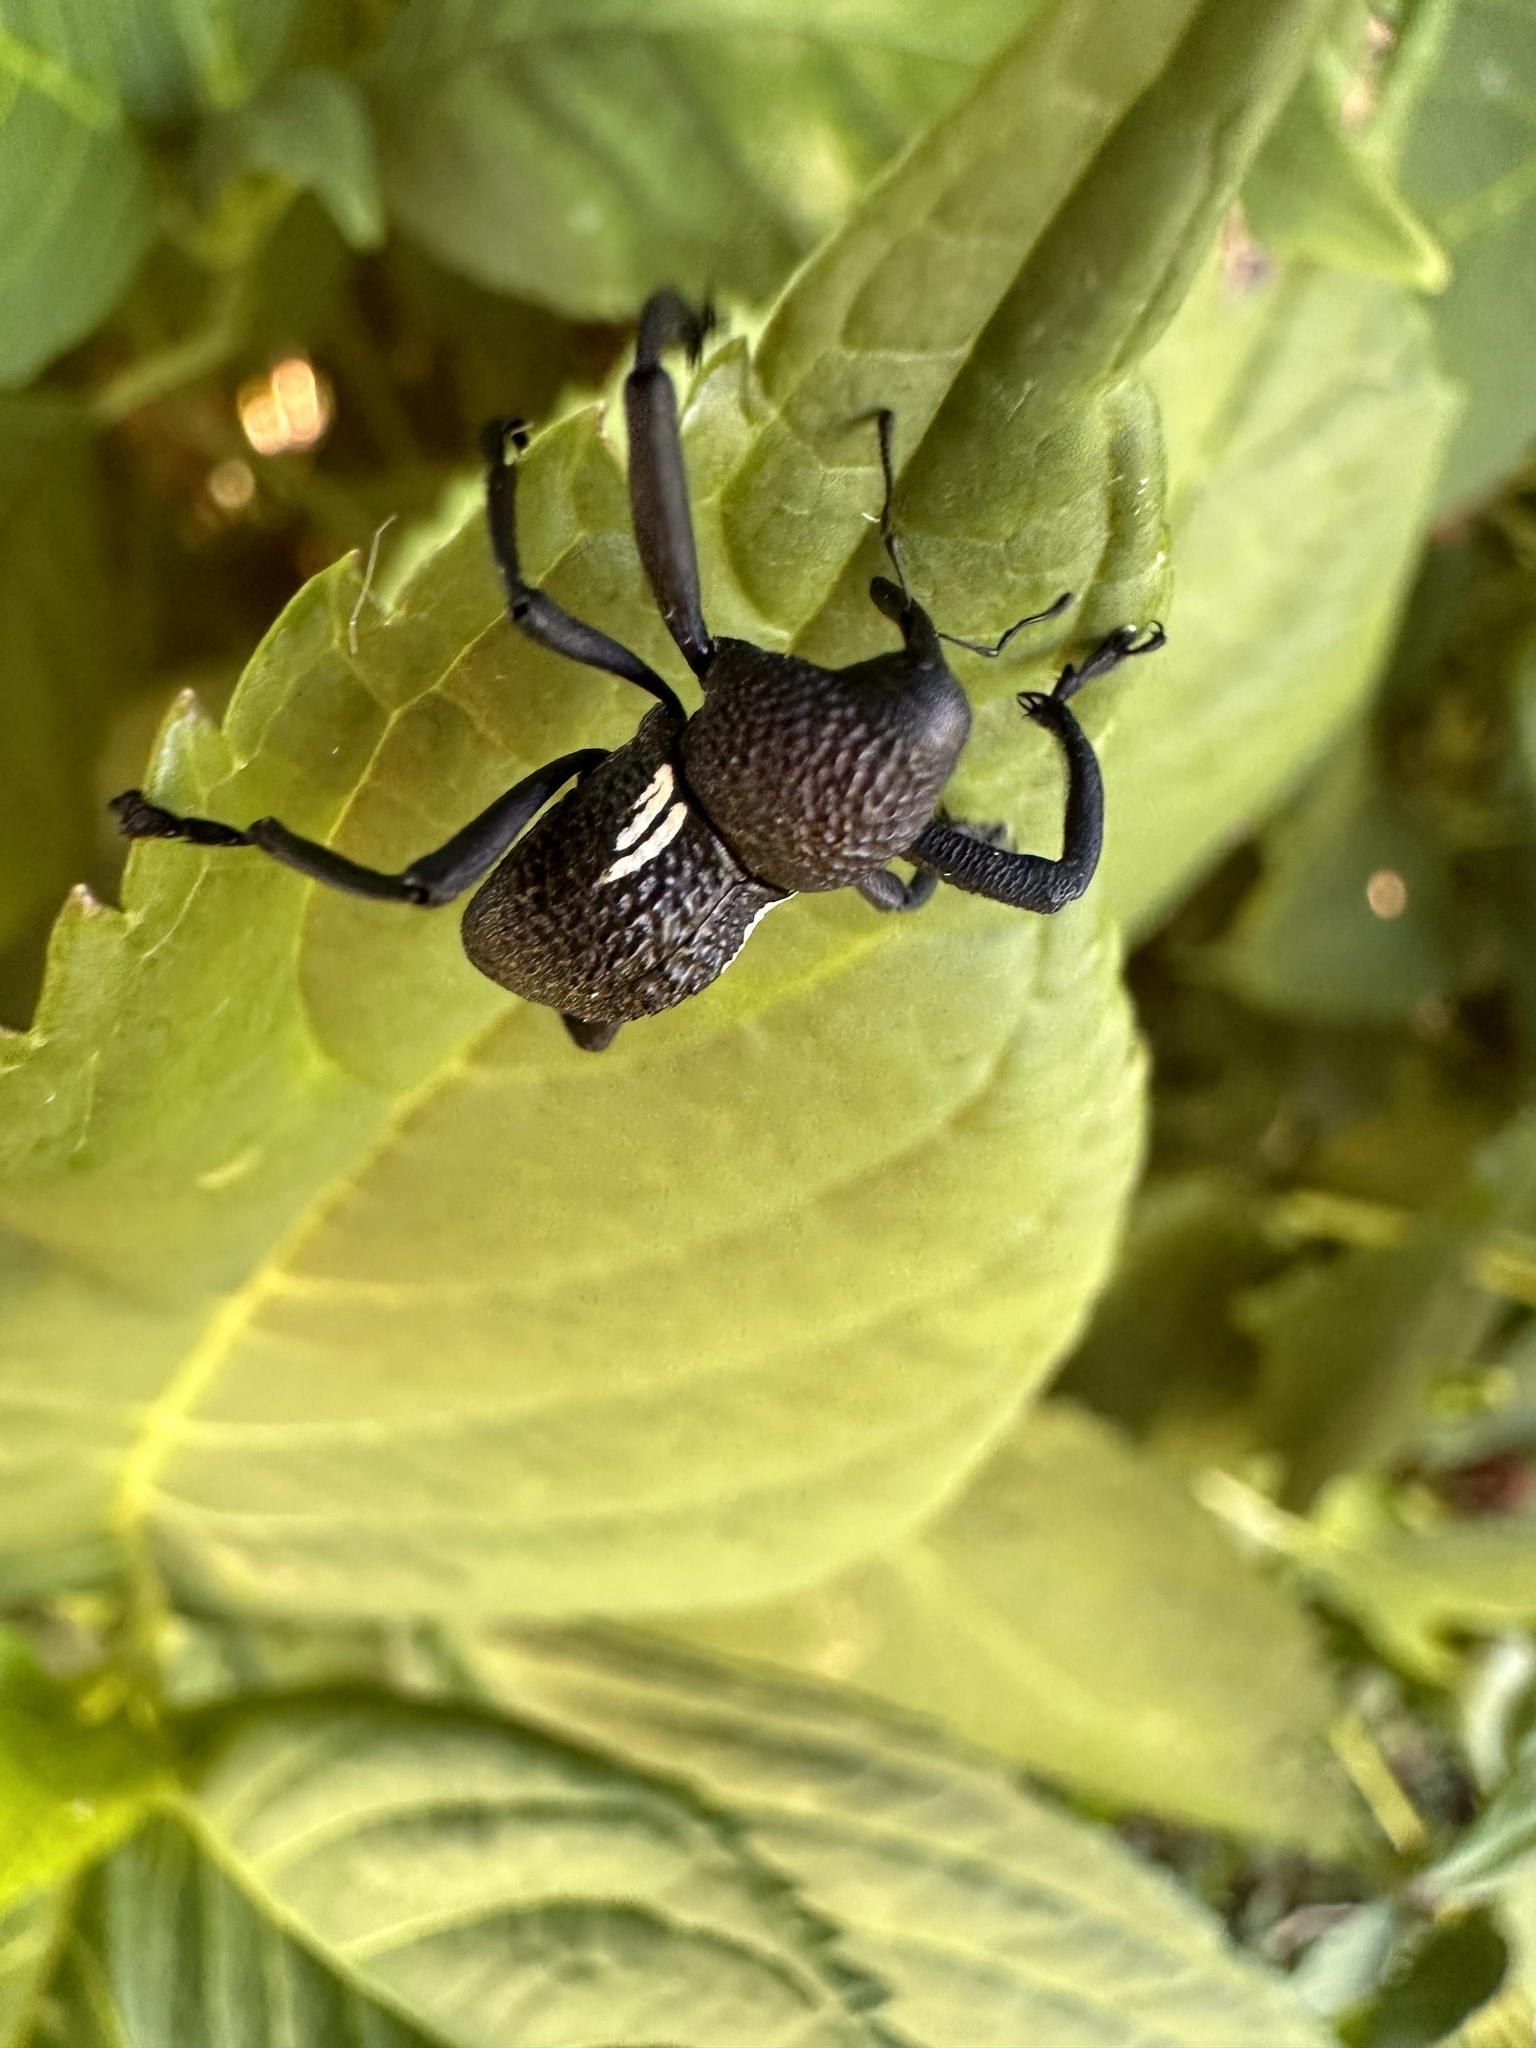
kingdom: Animalia
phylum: Arthropoda
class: Insecta
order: Coleoptera
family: Curculionidae
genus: Rhyephenes
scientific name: Rhyephenes humeralis
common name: Araè±ita chilena del pino
